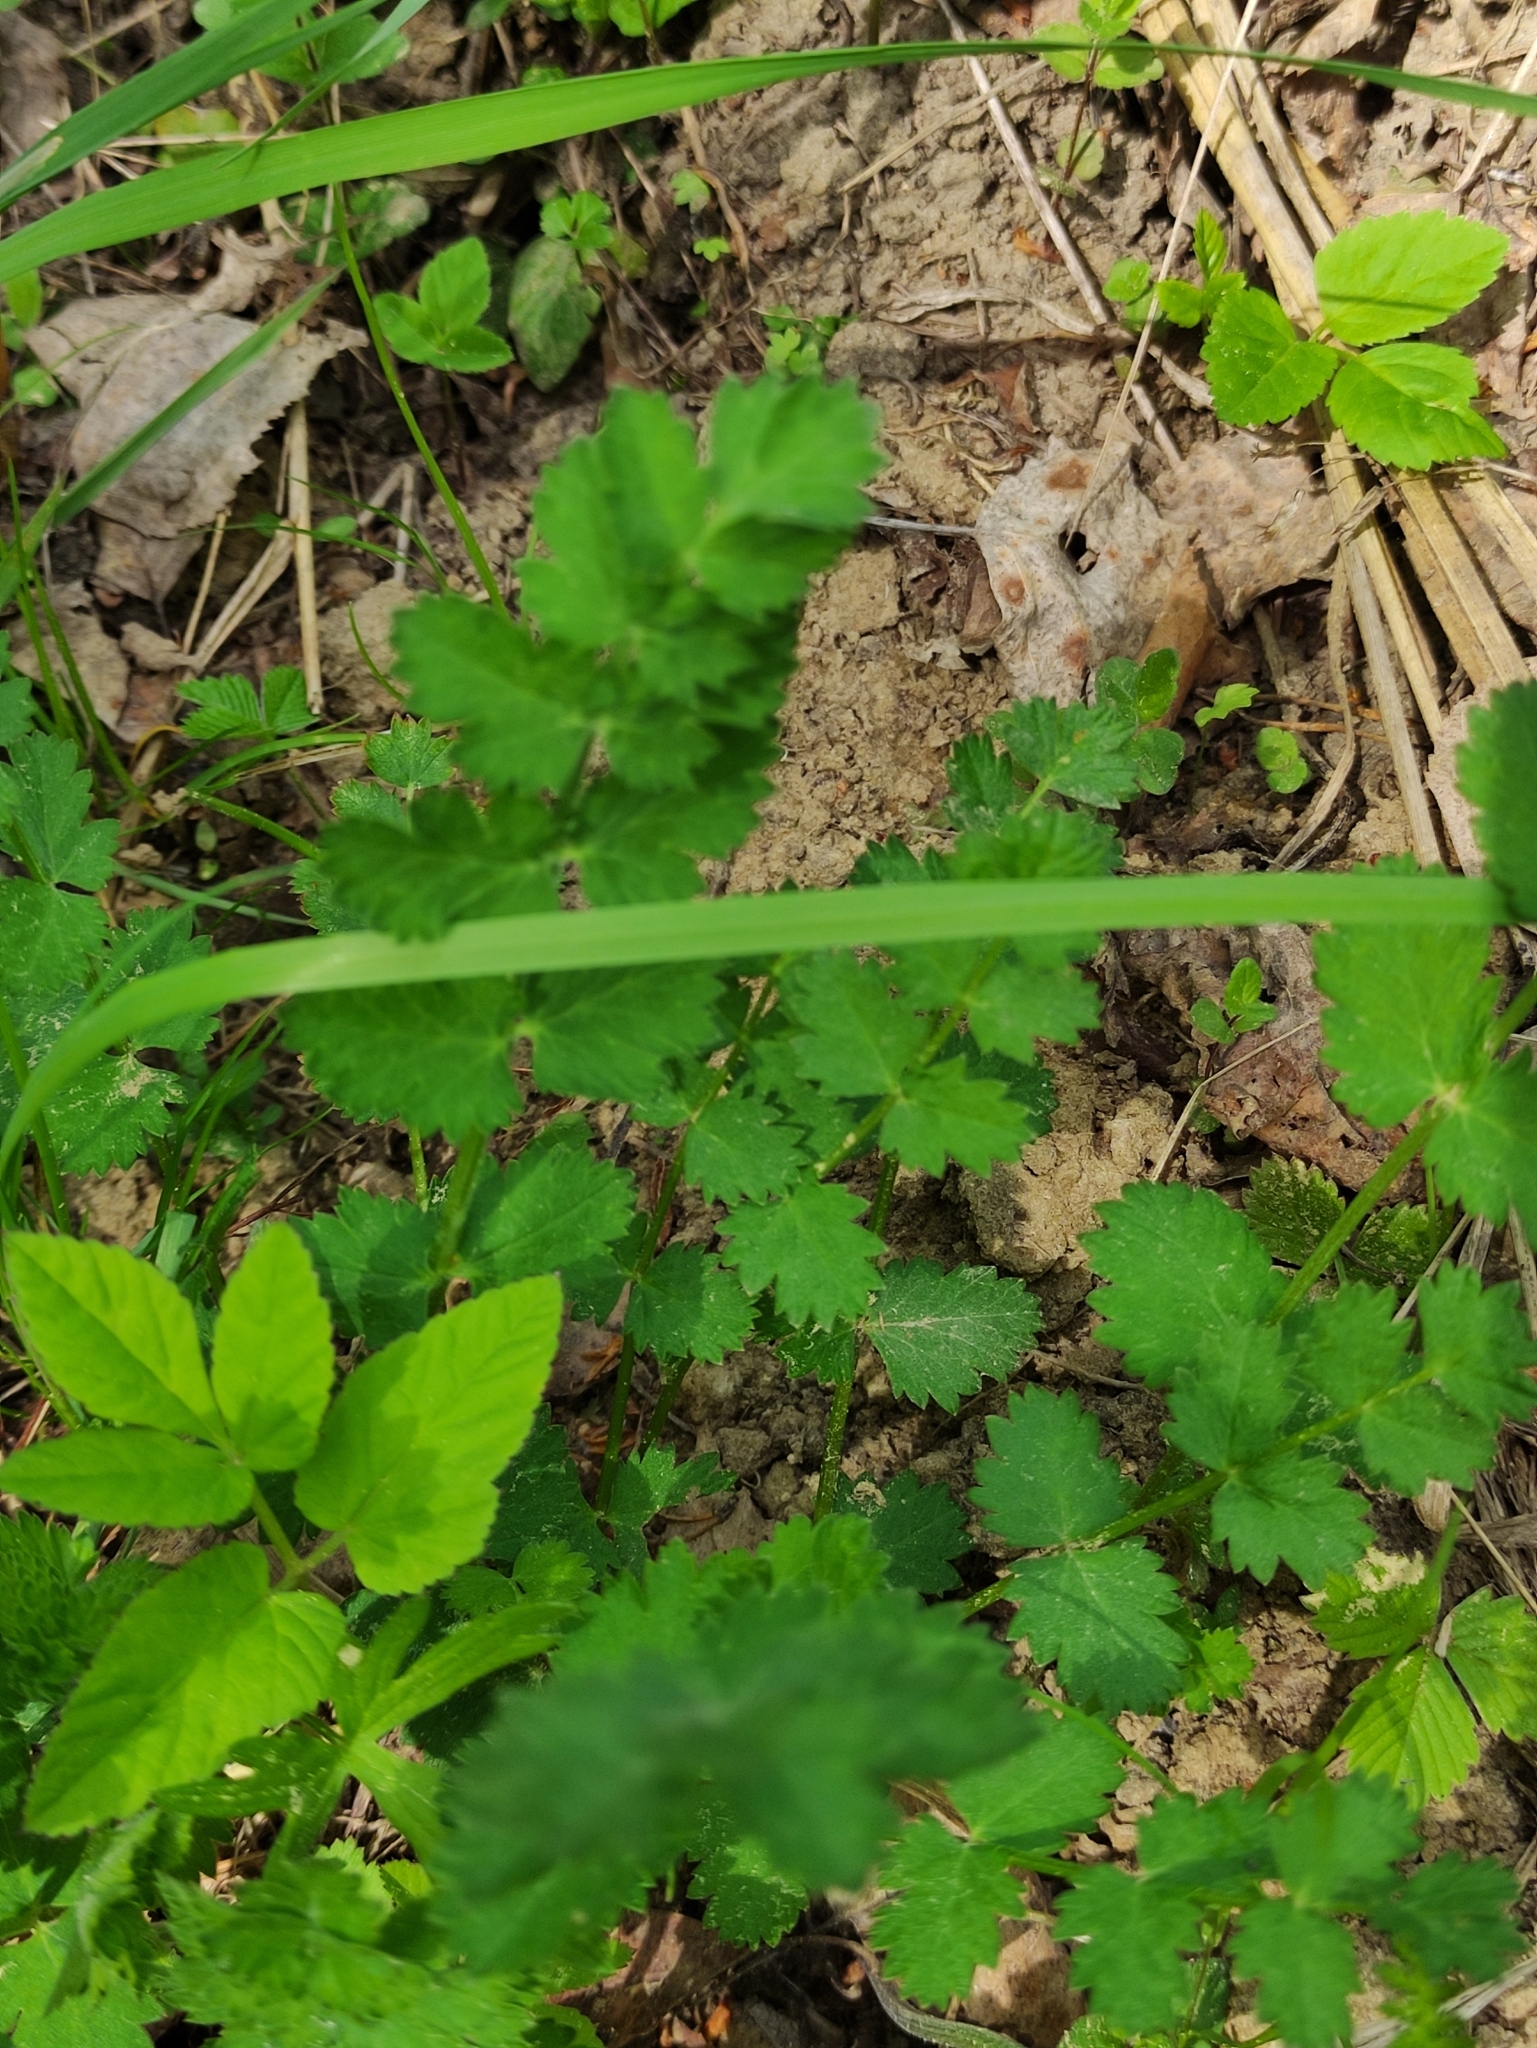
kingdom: Plantae
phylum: Tracheophyta
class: Magnoliopsida
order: Apiales
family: Apiaceae
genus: Pimpinella
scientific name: Pimpinella saxifraga
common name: Burnet-saxifrage
